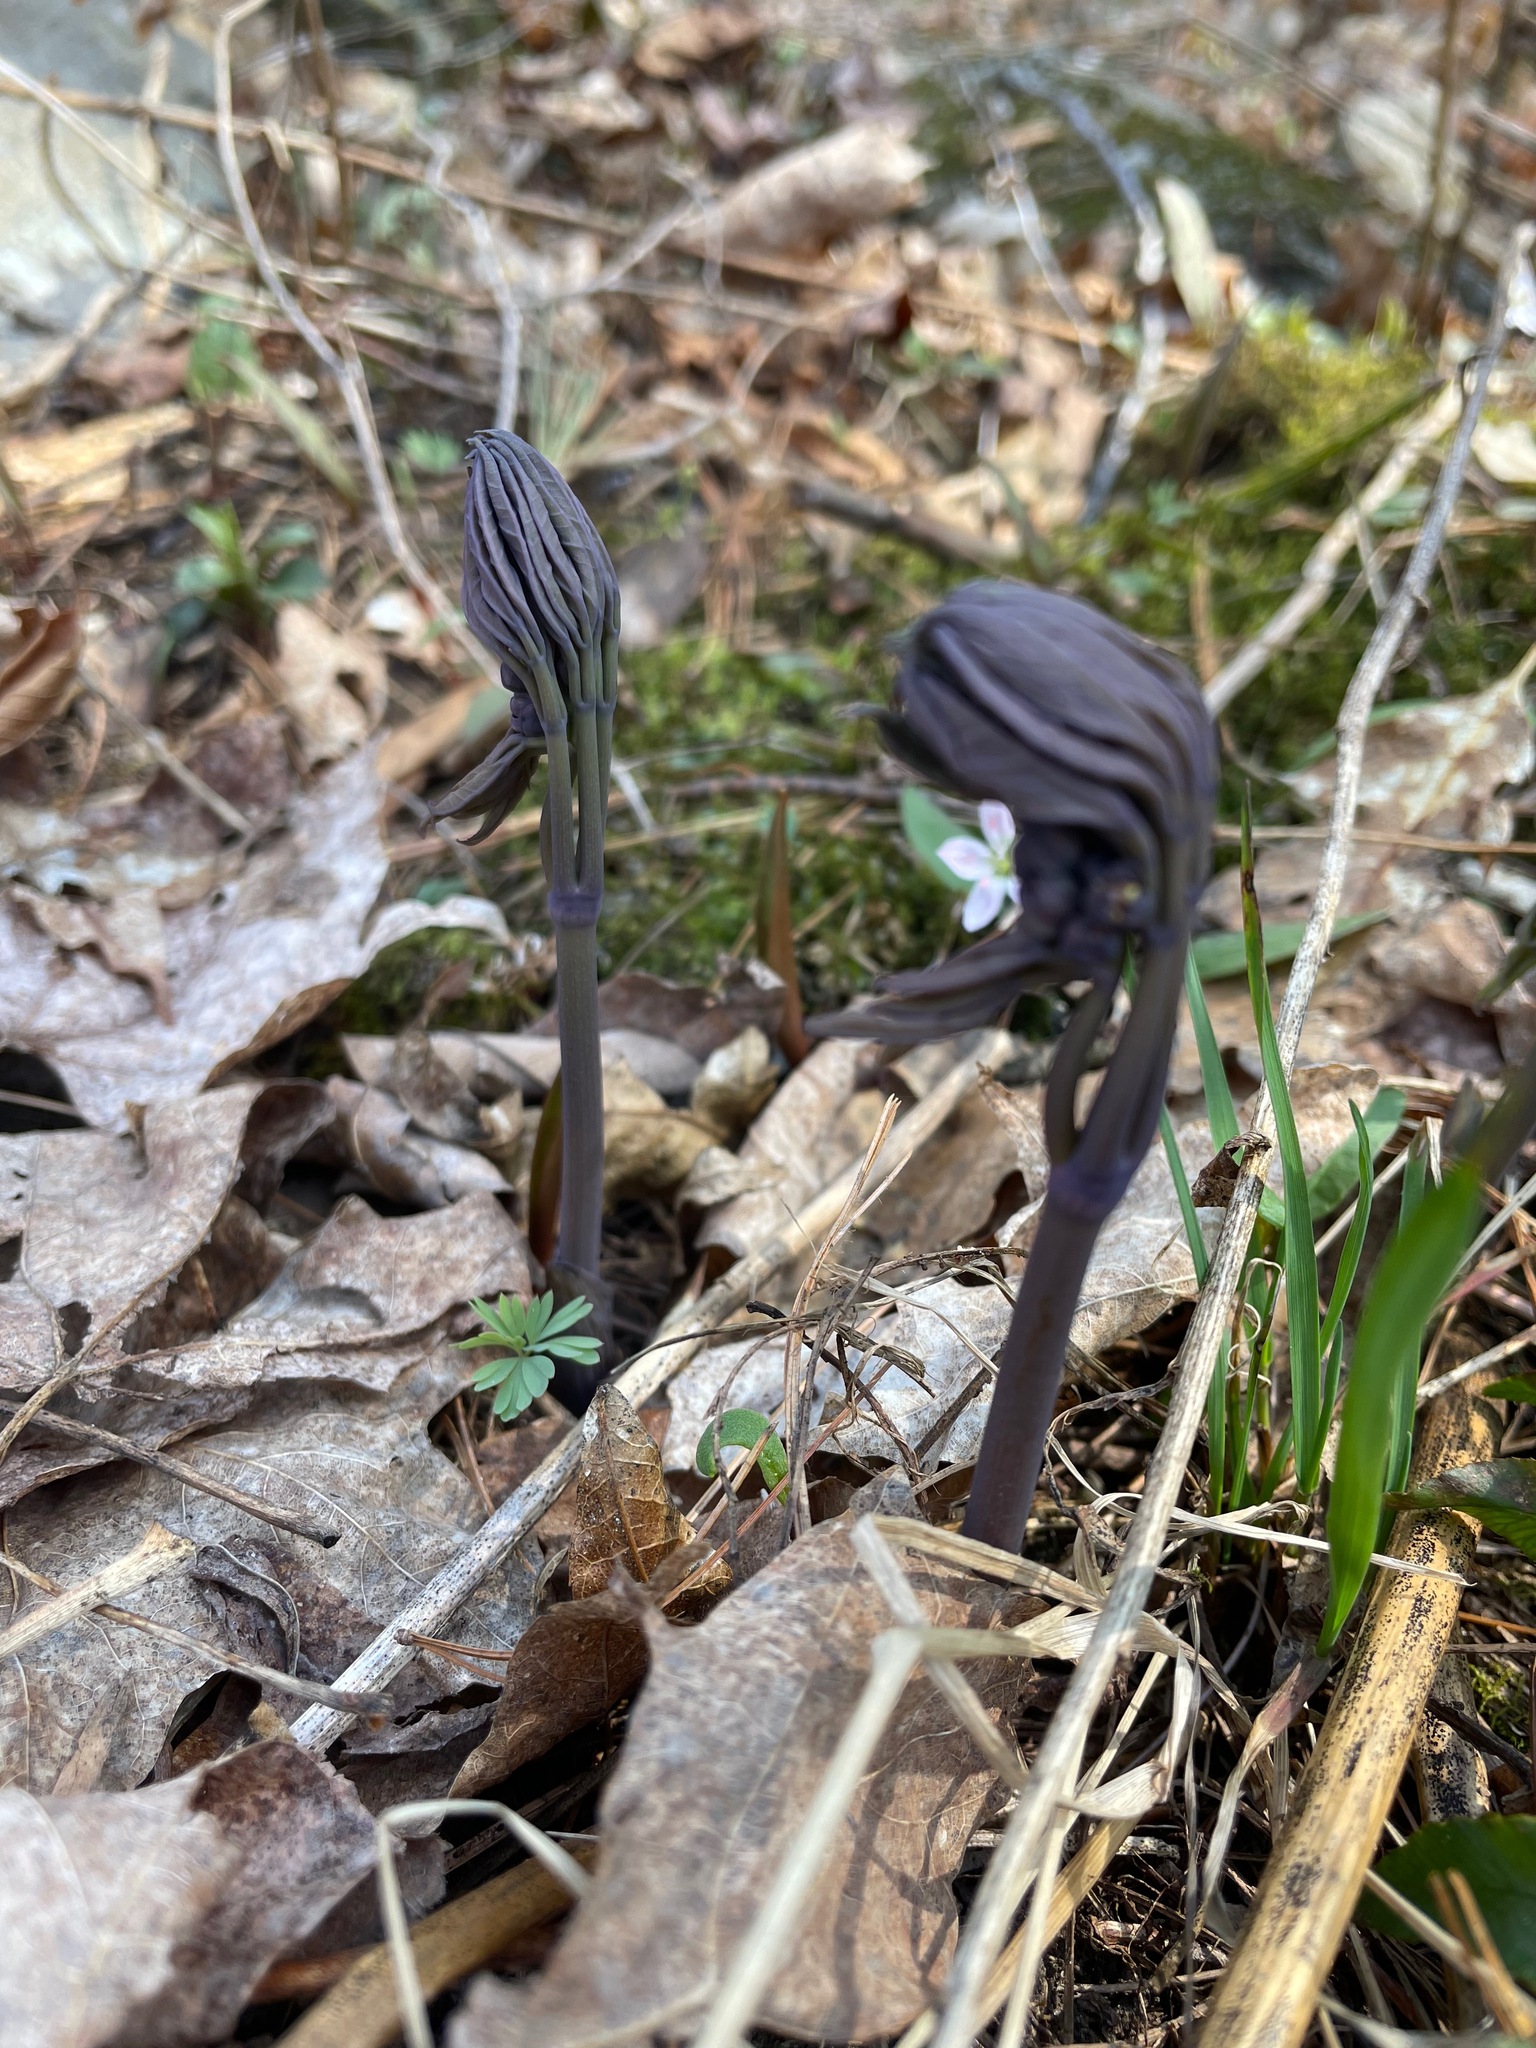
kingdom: Plantae
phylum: Tracheophyta
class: Magnoliopsida
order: Ranunculales
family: Berberidaceae
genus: Caulophyllum
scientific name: Caulophyllum giganteum
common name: Blue cohosh
